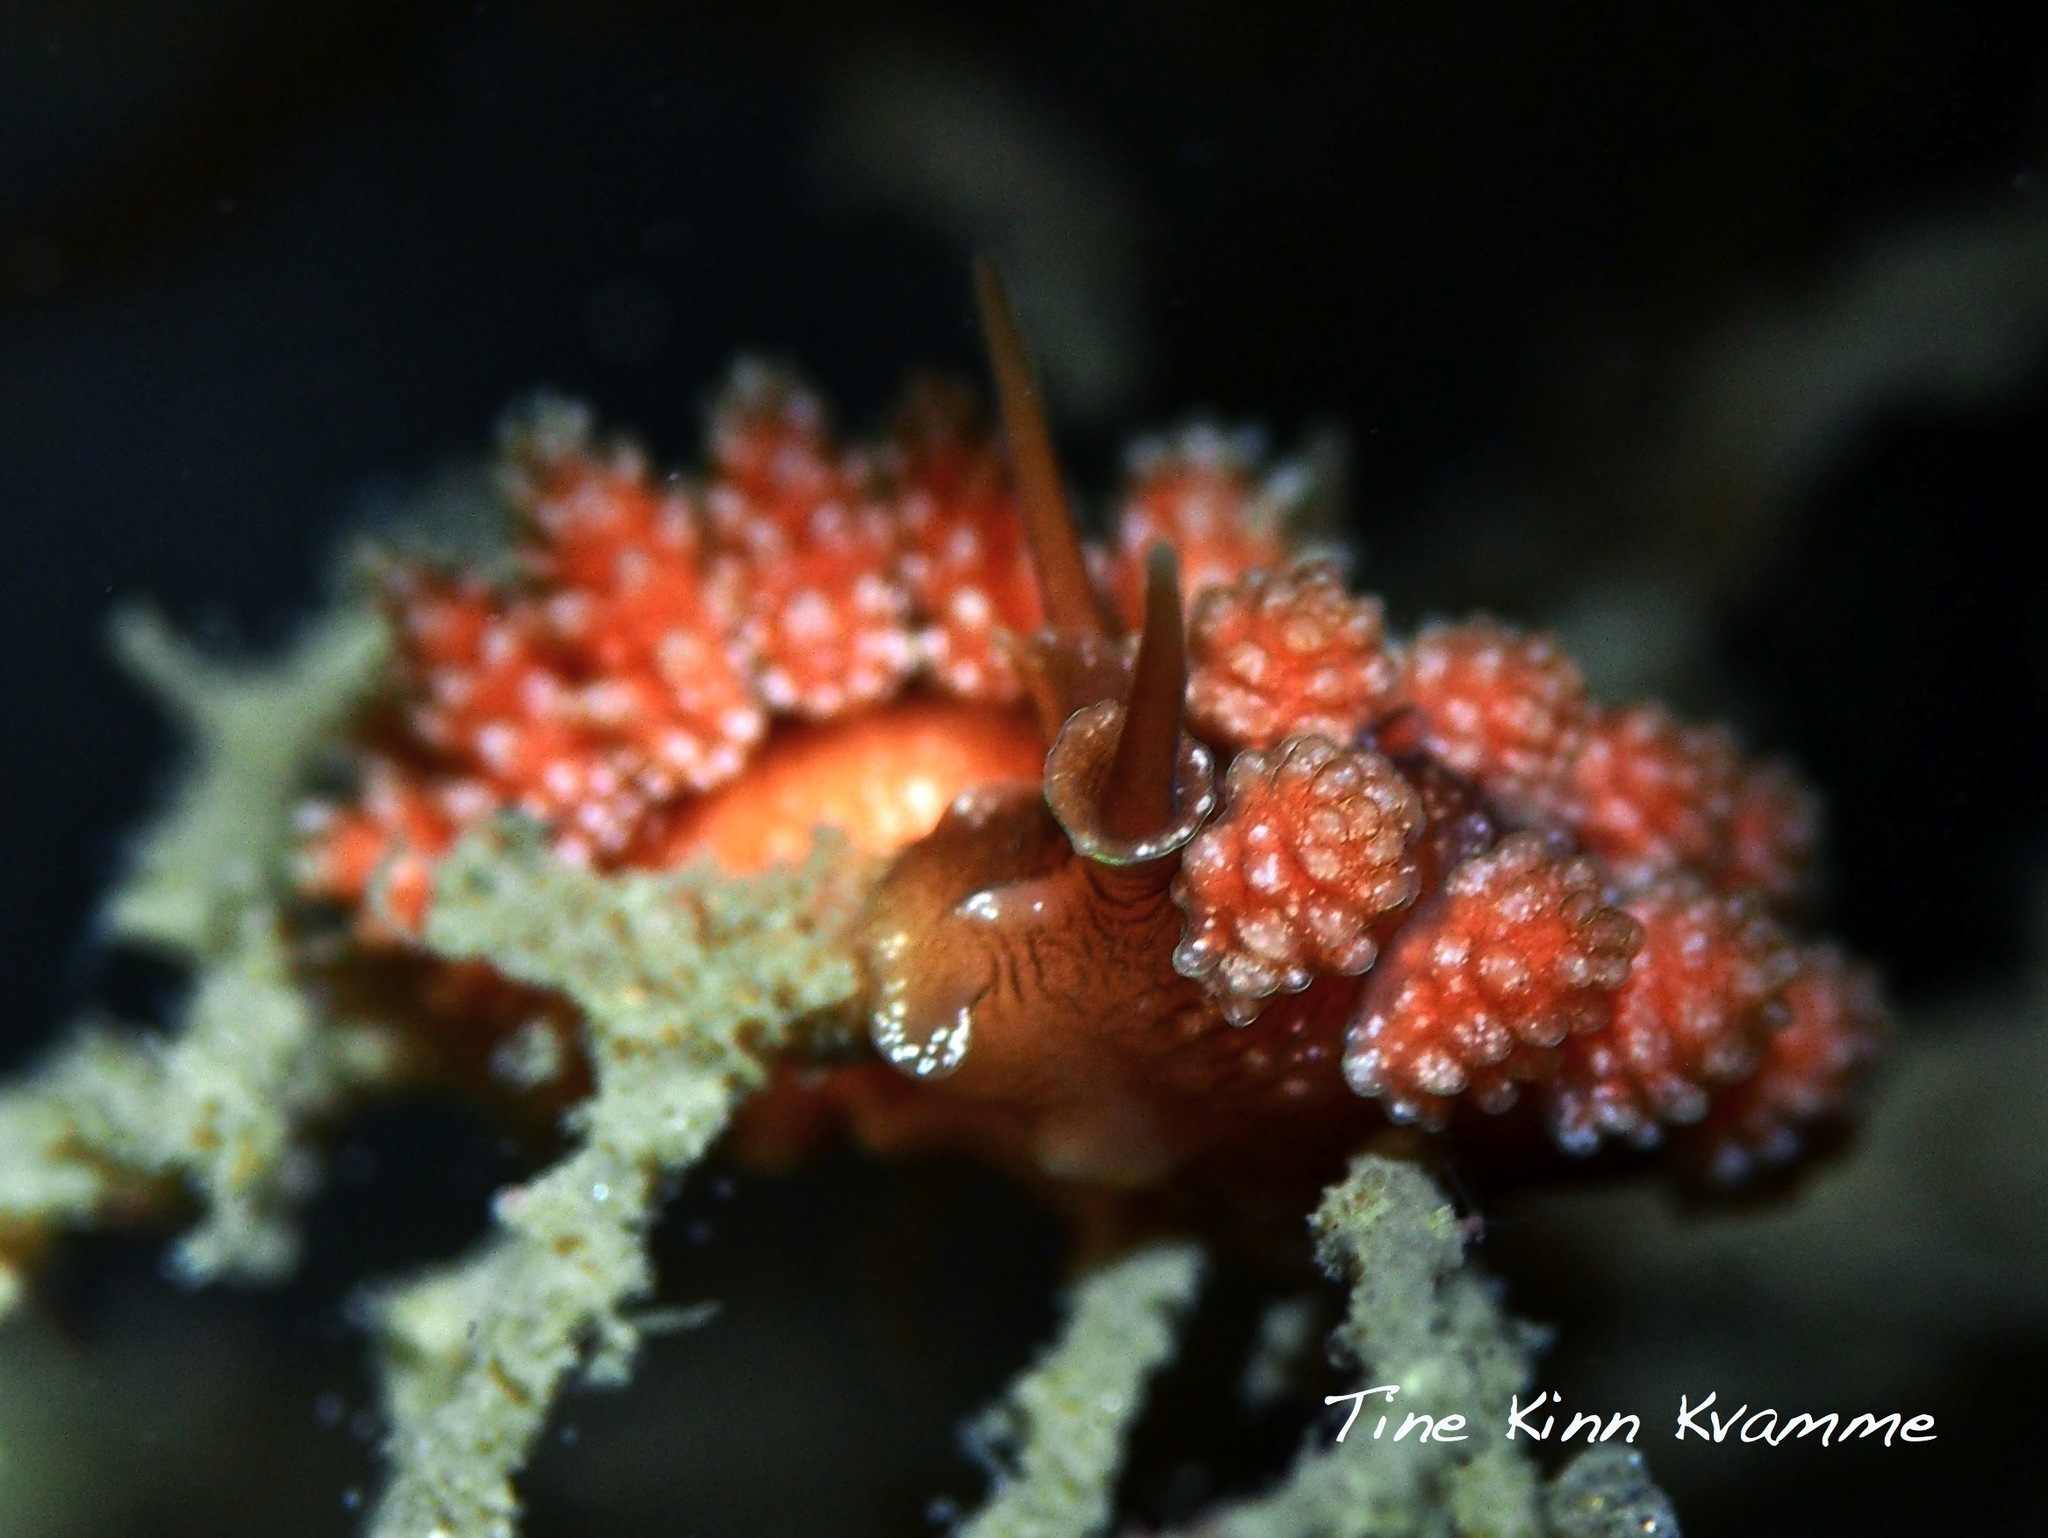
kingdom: Animalia
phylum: Mollusca
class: Gastropoda
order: Nudibranchia
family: Dotidae
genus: Doto
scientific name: Doto fragilis
